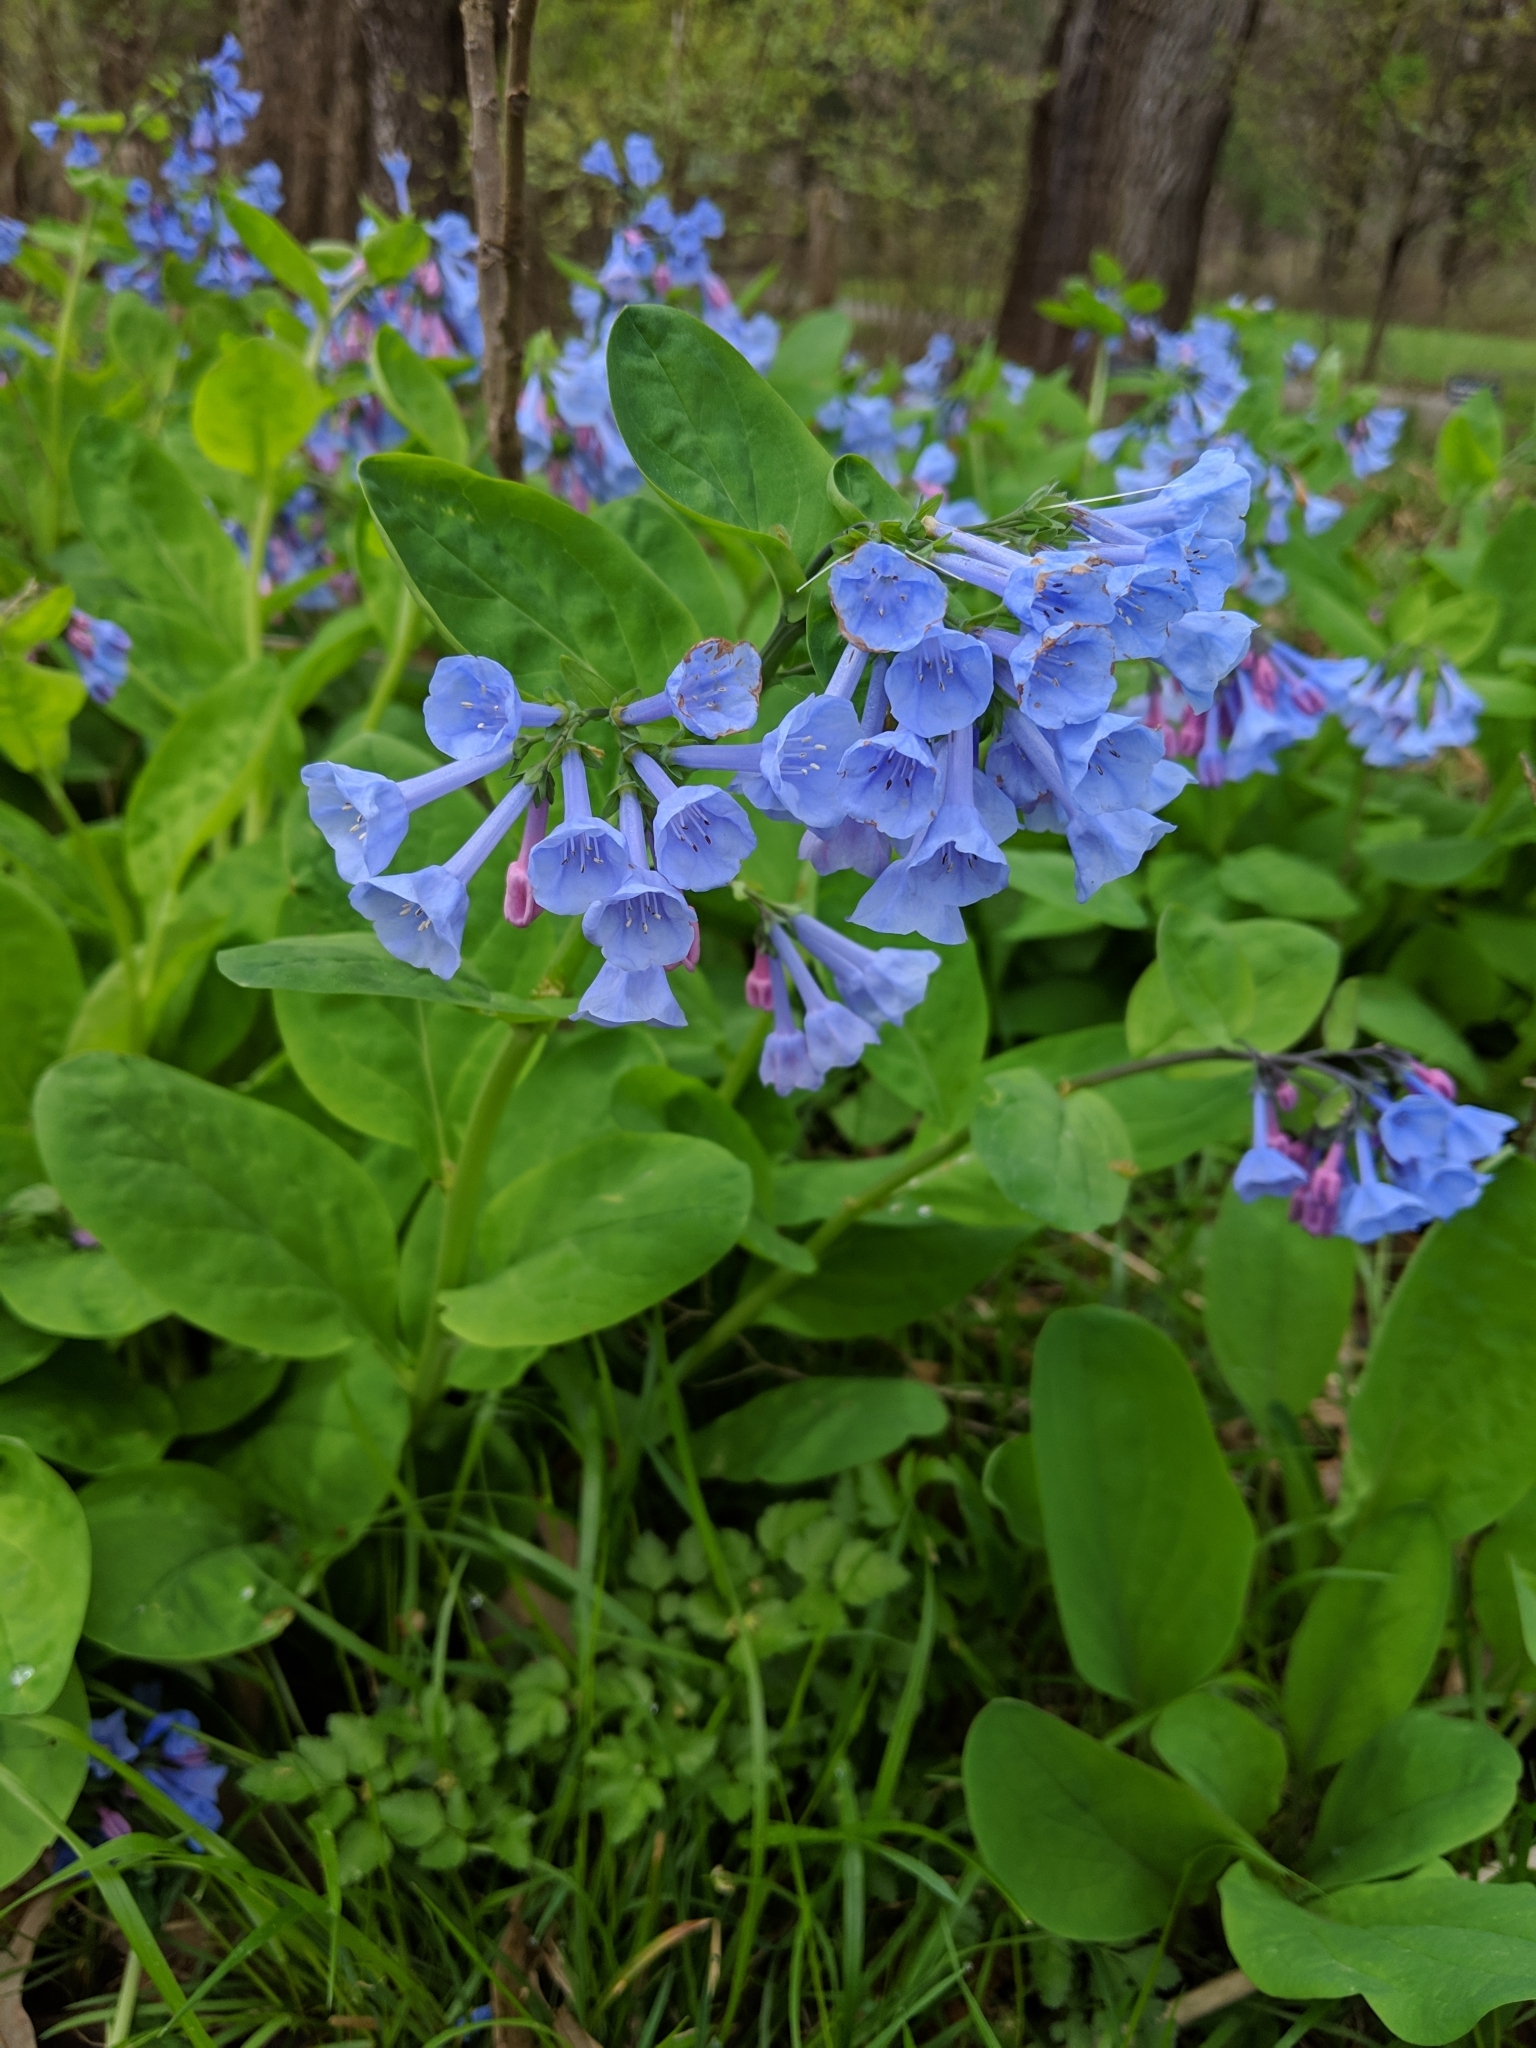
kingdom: Plantae
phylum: Tracheophyta
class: Magnoliopsida
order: Boraginales
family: Boraginaceae
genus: Mertensia
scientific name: Mertensia virginica
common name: Virginia bluebells
